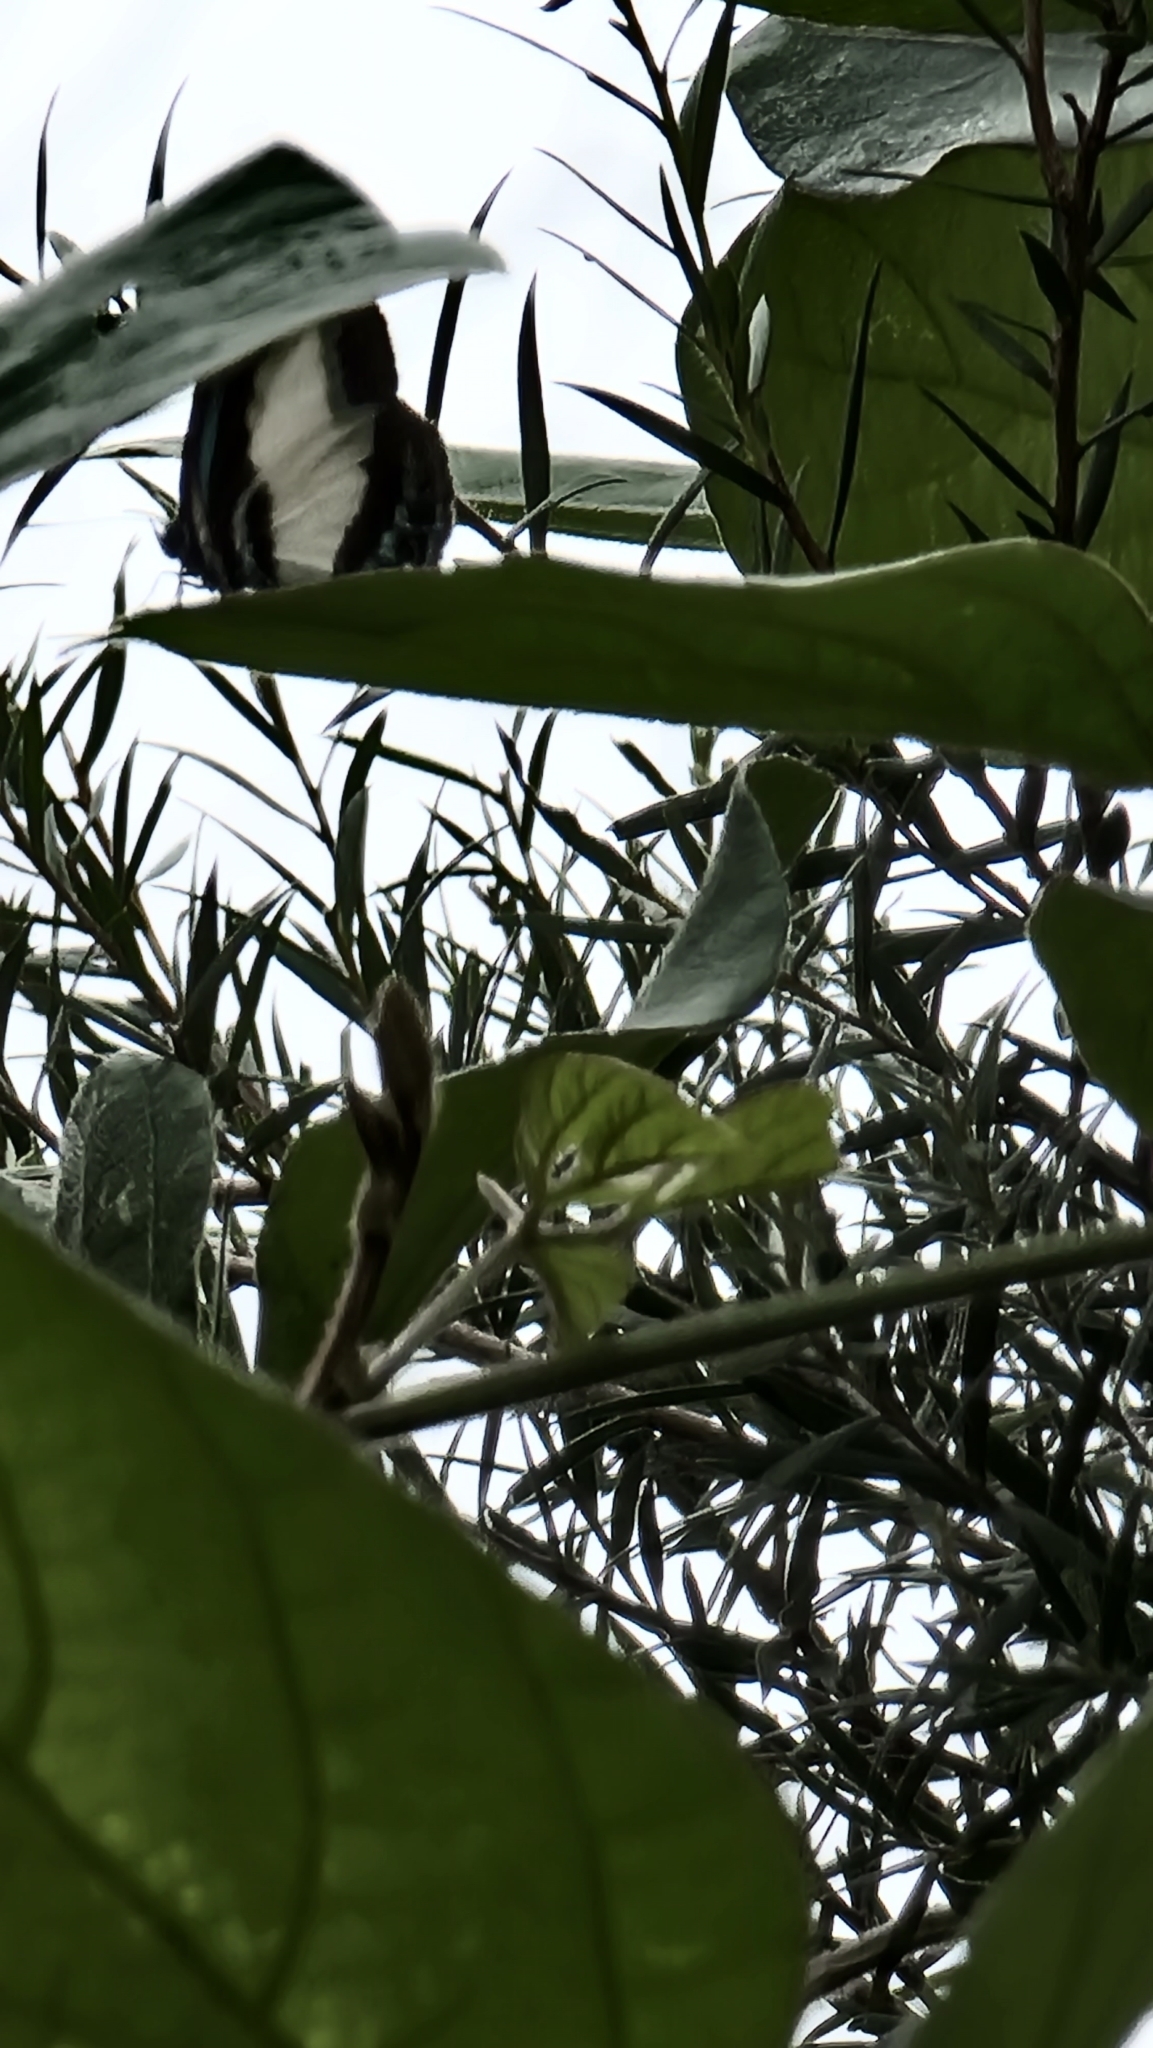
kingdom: Animalia
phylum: Arthropoda
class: Insecta
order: Lepidoptera
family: Lycaenidae
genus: Psychonotis
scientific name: Psychonotis caelius
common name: Small green banded blue
